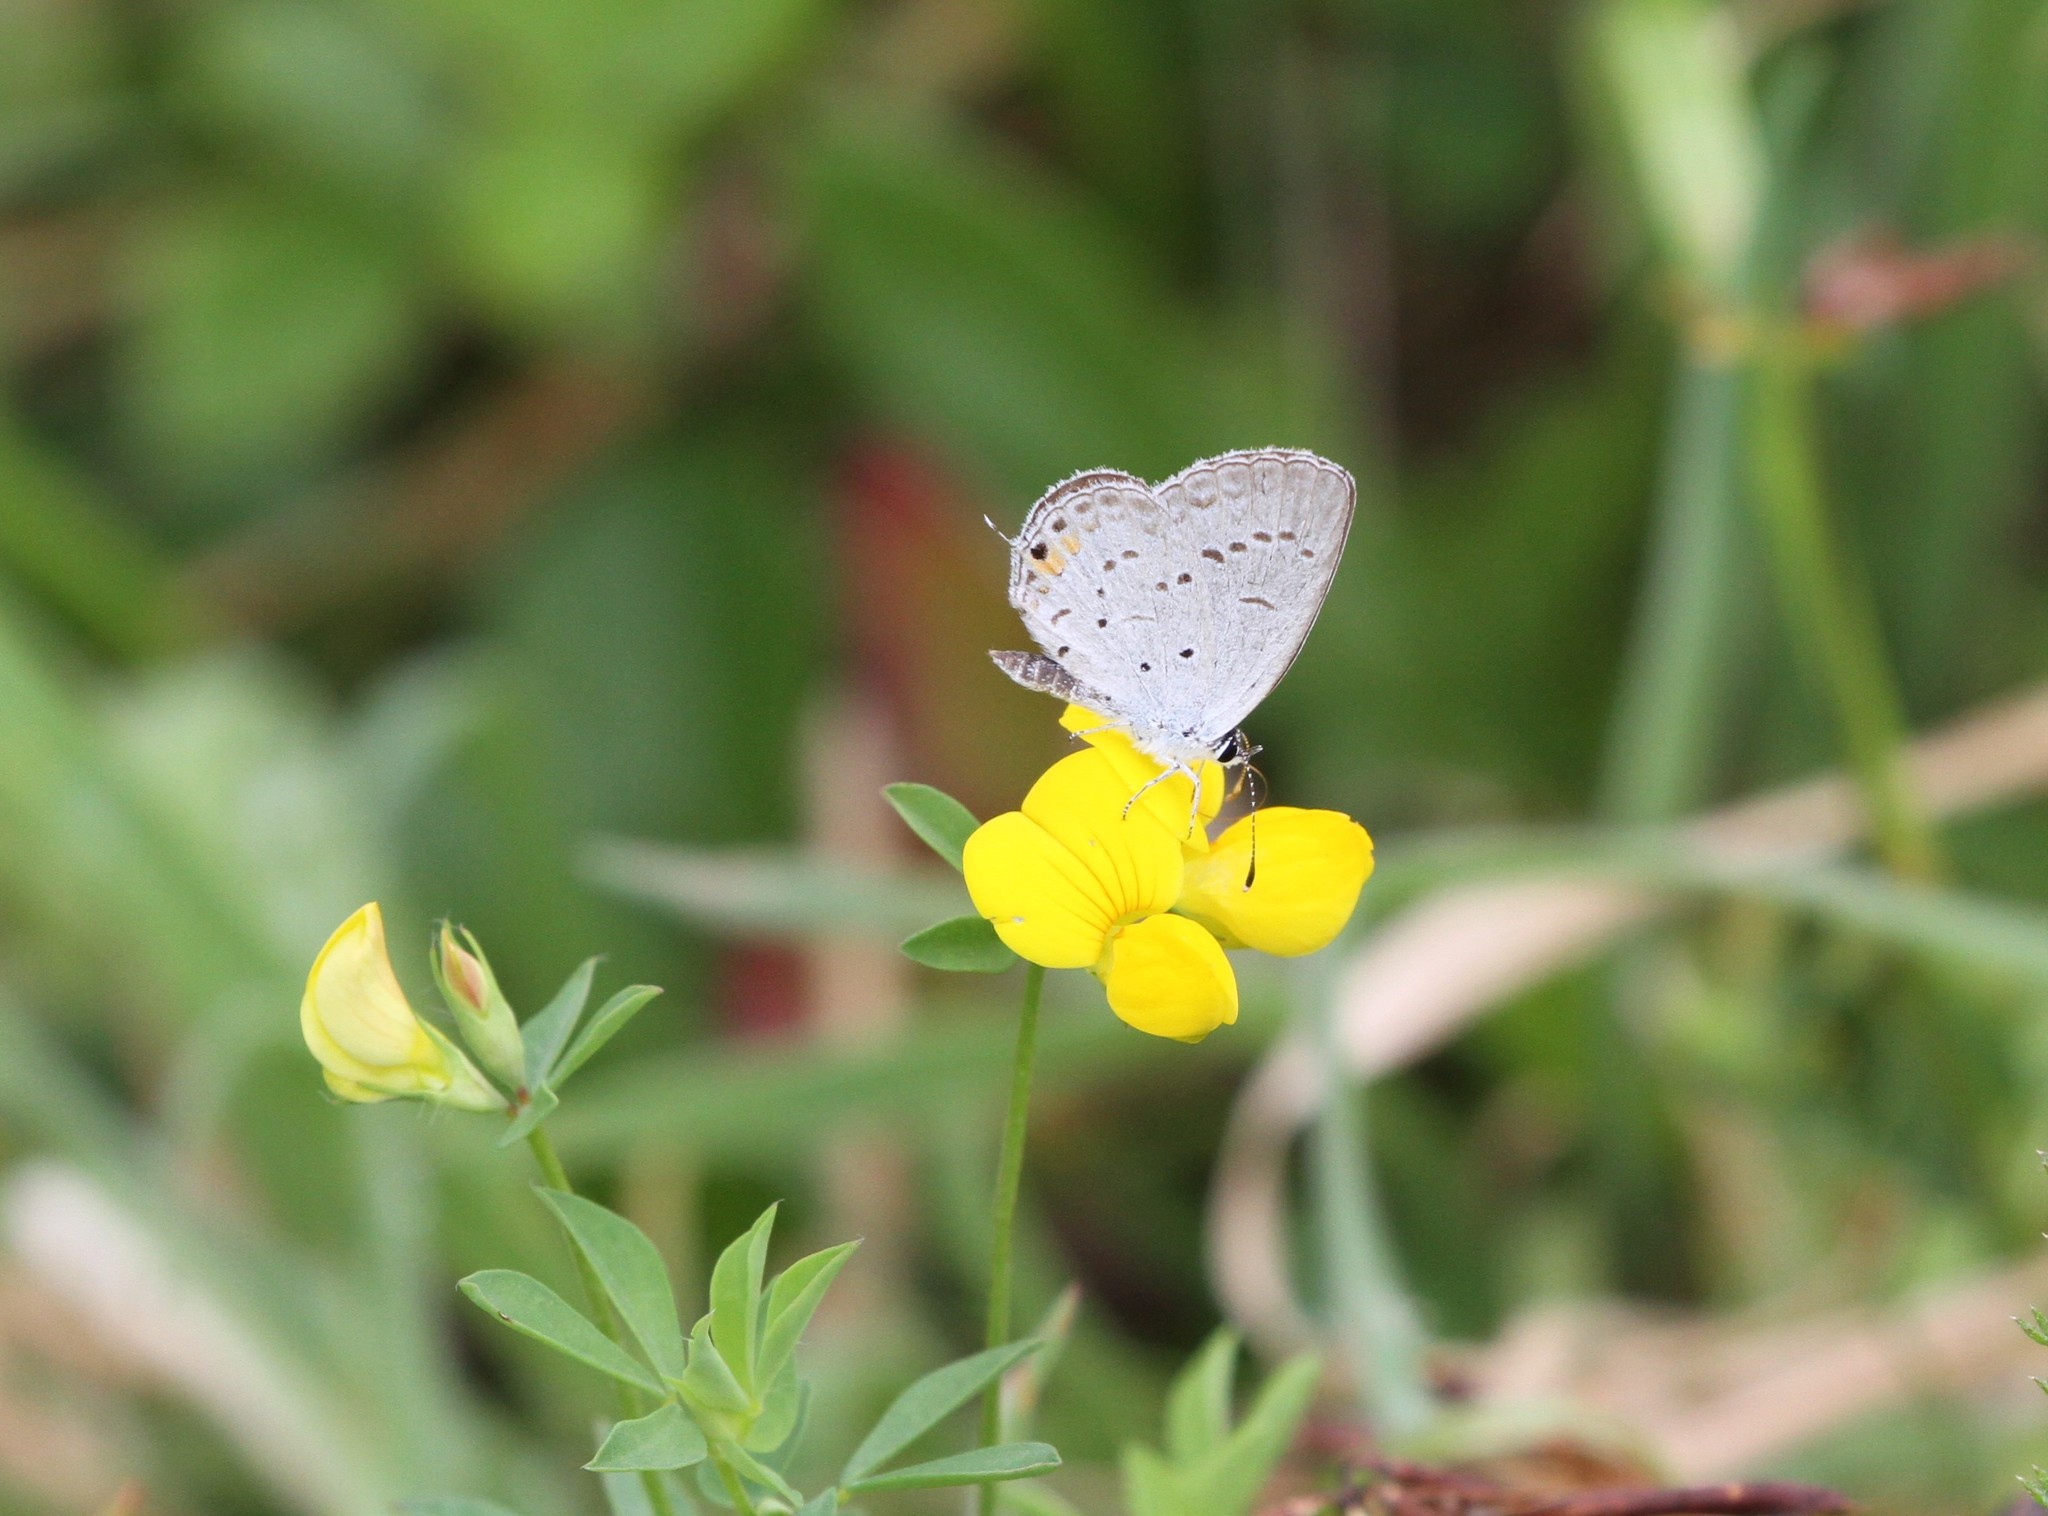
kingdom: Animalia
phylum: Arthropoda
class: Insecta
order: Lepidoptera
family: Lycaenidae
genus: Elkalyce
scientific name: Elkalyce comyntas
